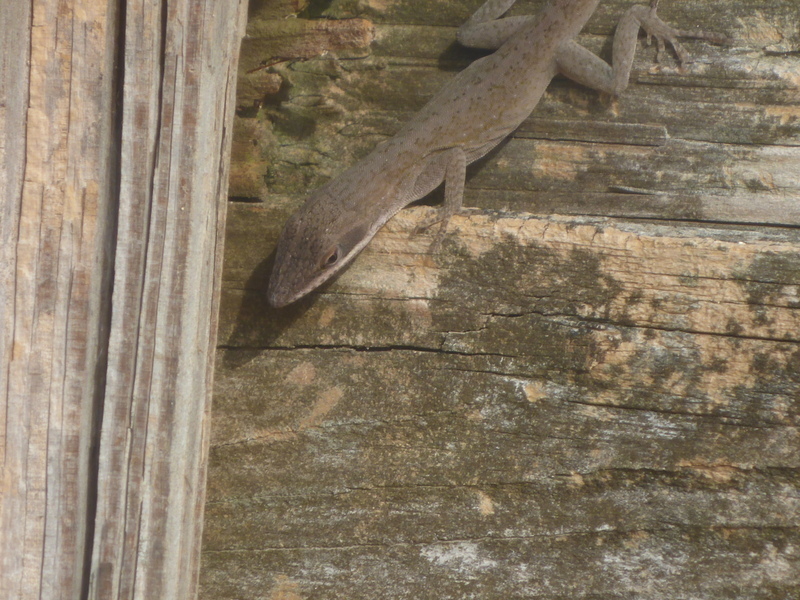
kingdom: Animalia
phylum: Chordata
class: Squamata
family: Dactyloidae
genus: Anolis
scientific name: Anolis carolinensis
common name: Green anole
